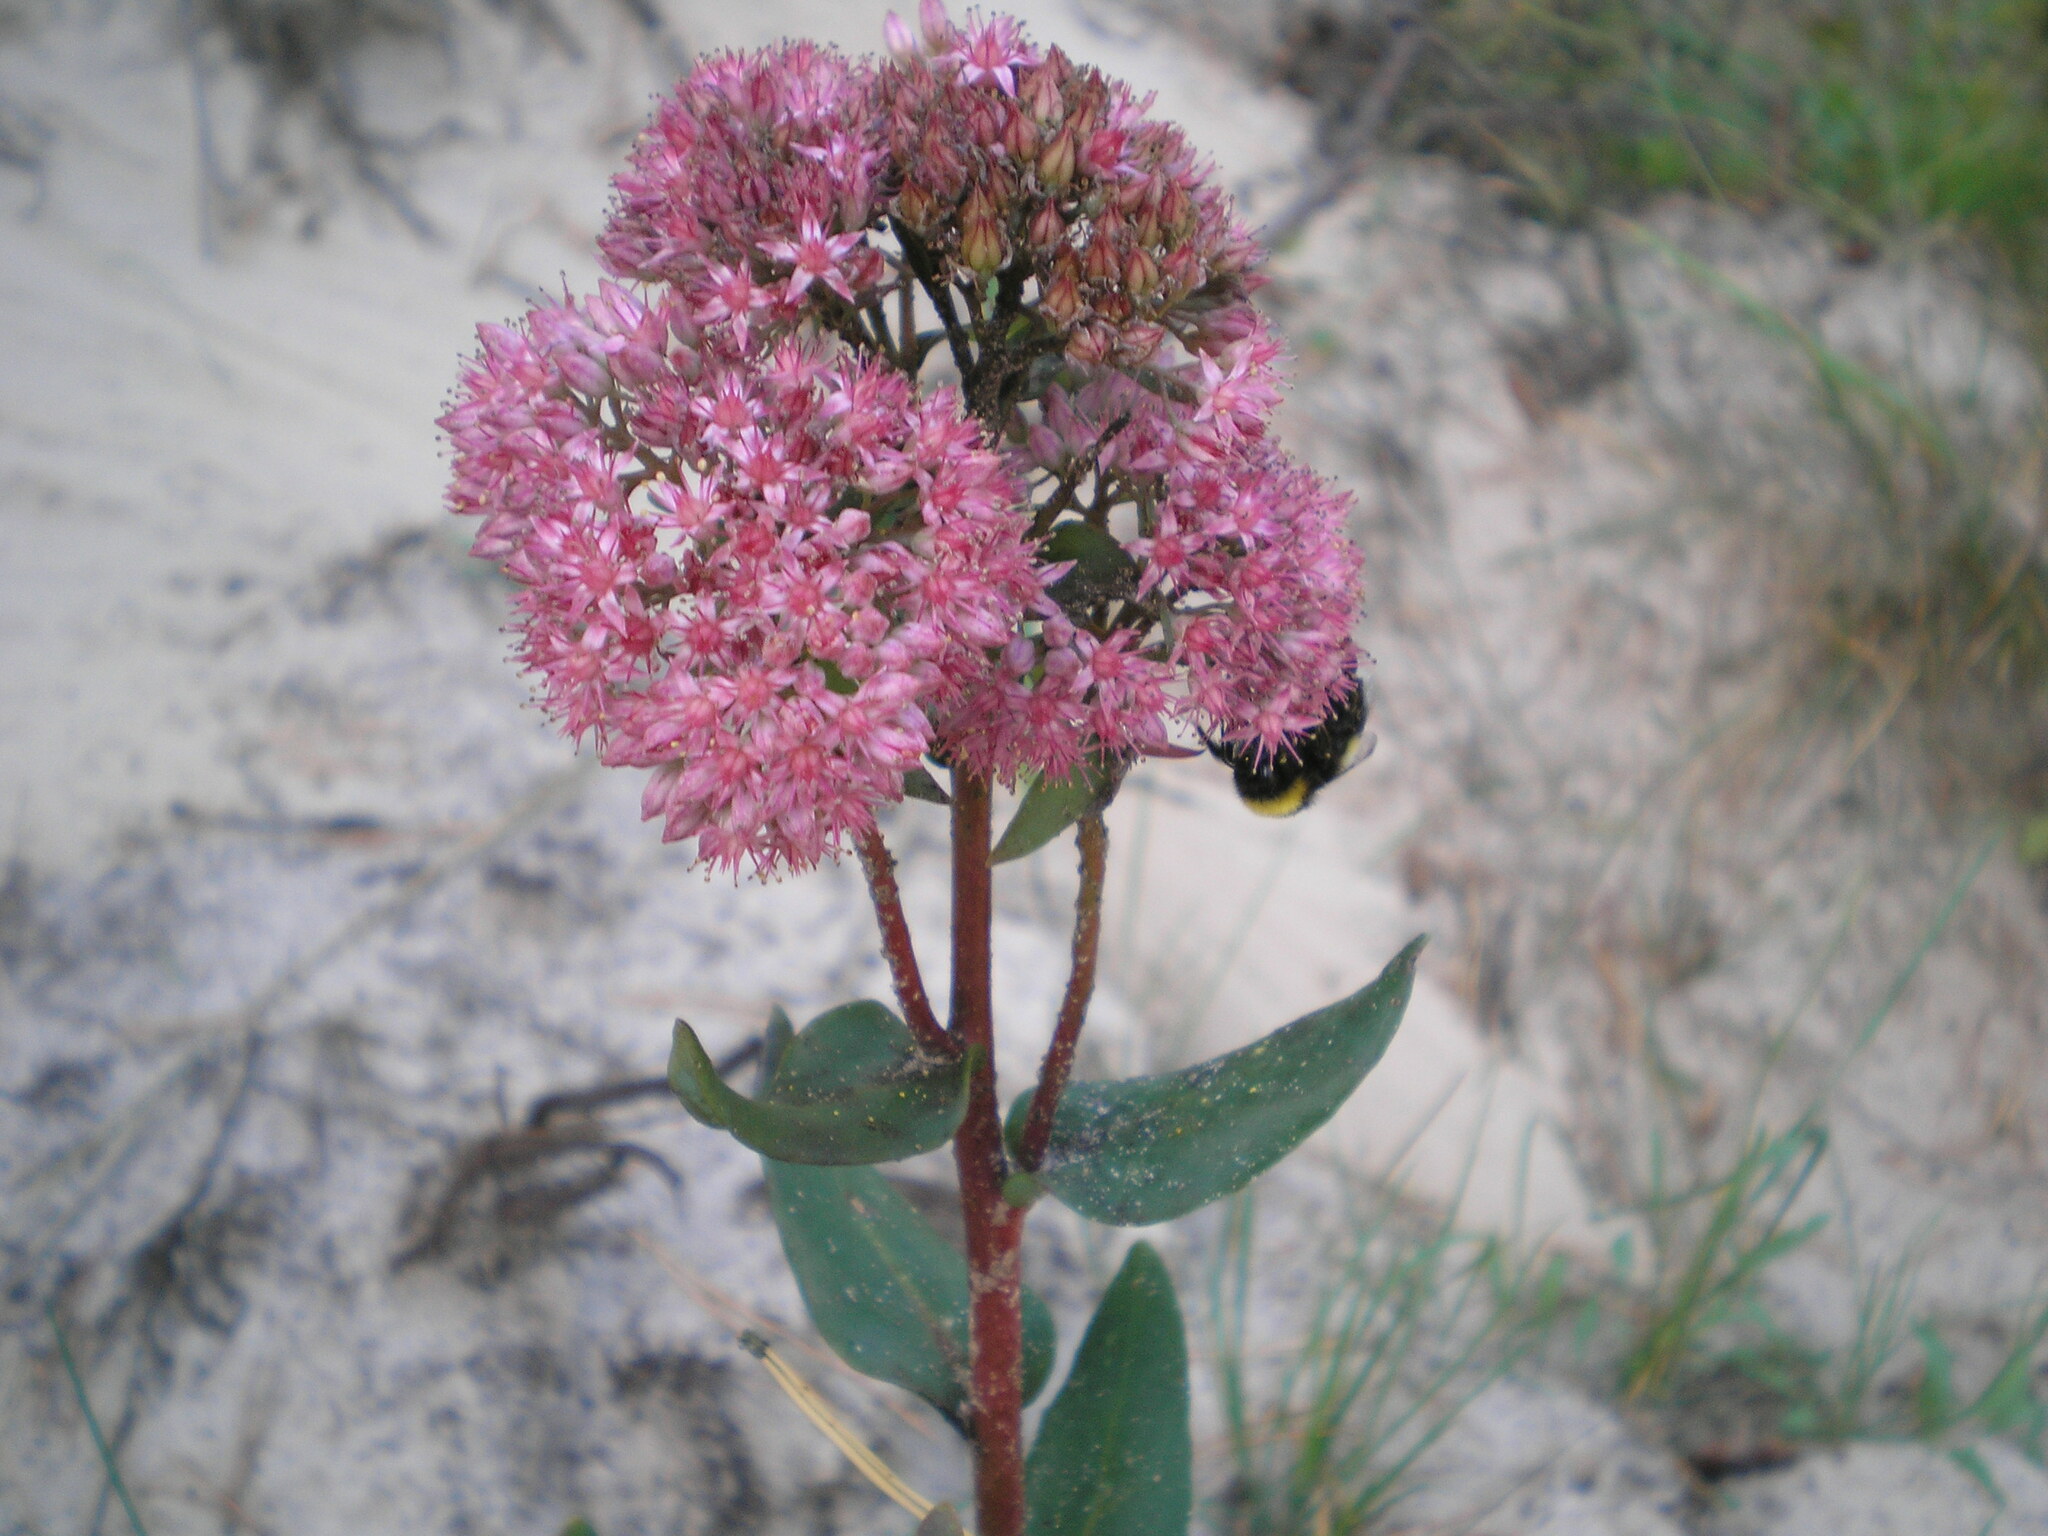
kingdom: Plantae
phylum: Tracheophyta
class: Magnoliopsida
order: Saxifragales
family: Crassulaceae
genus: Hylotelephium
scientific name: Hylotelephium telephium
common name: Live-forever
